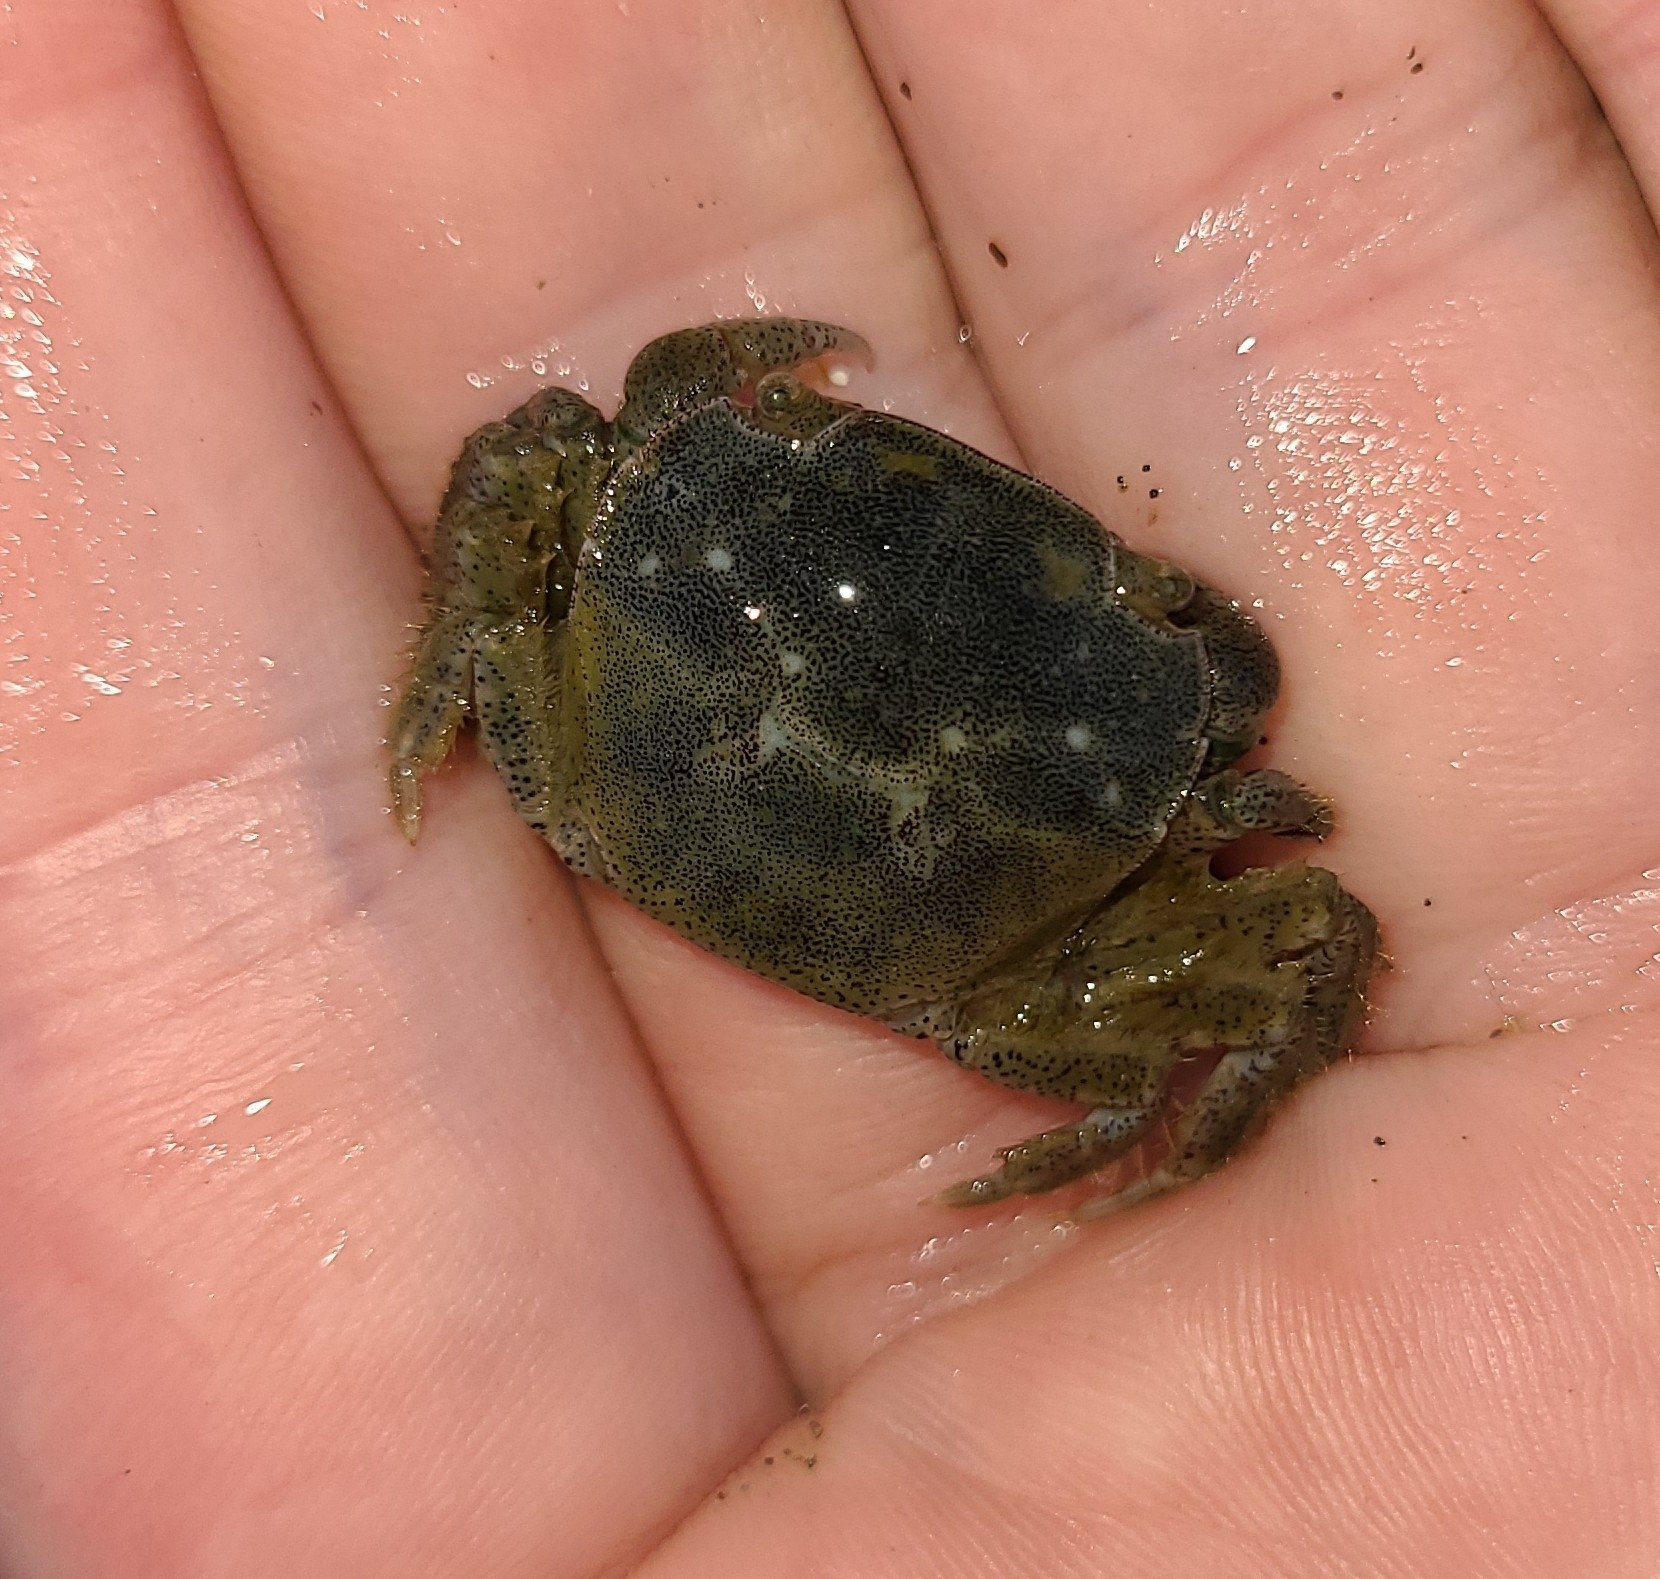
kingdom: Animalia
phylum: Arthropoda
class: Malacostraca
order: Decapoda
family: Varunidae
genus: Hemigrapsus
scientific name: Hemigrapsus crenulatus
